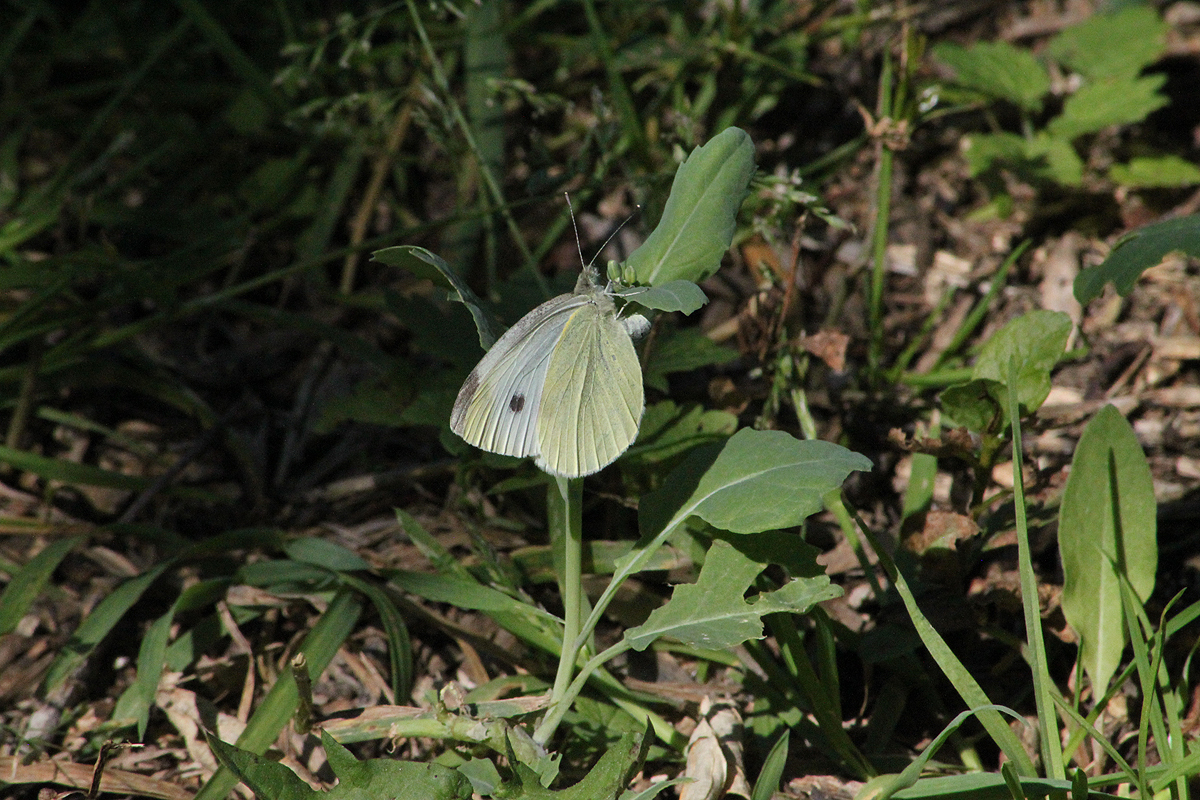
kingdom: Animalia
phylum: Arthropoda
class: Insecta
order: Lepidoptera
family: Pieridae
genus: Pieris
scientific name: Pieris rapae
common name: Small white
